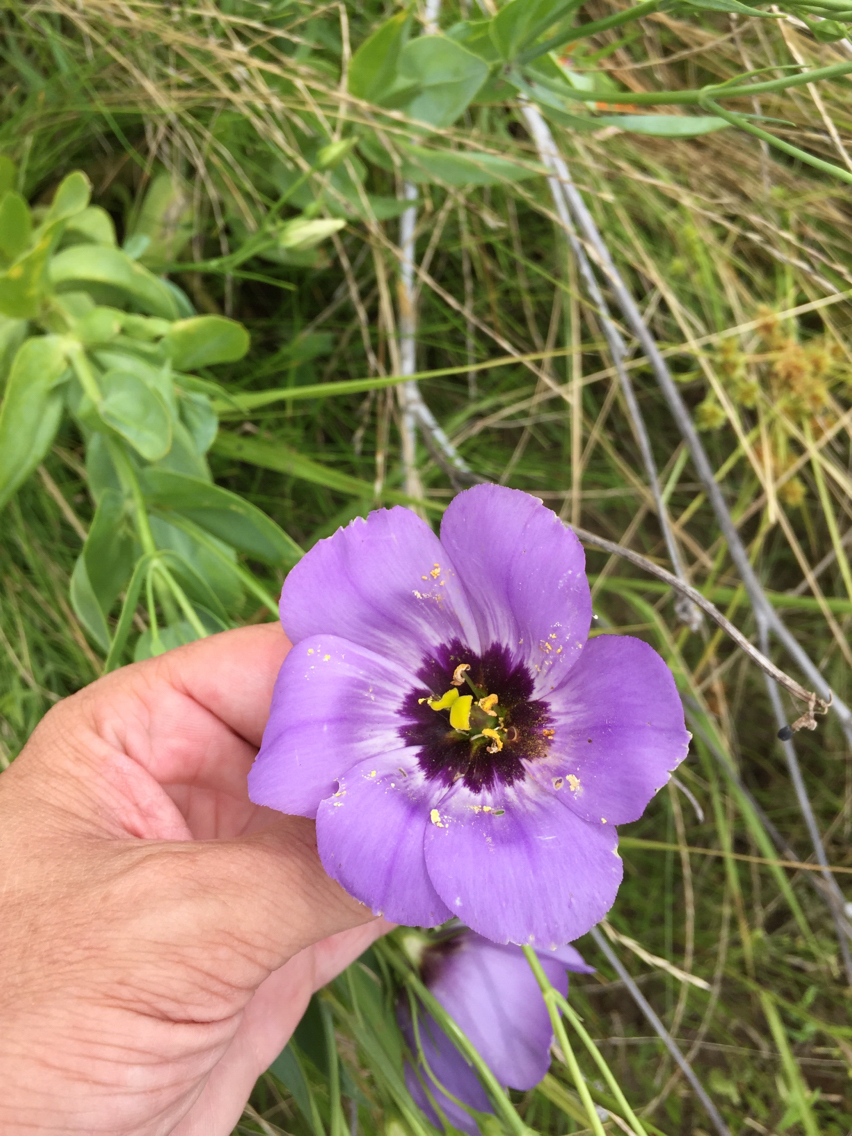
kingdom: Plantae
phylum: Tracheophyta
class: Magnoliopsida
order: Gentianales
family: Gentianaceae
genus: Eustoma
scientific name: Eustoma russellianum
